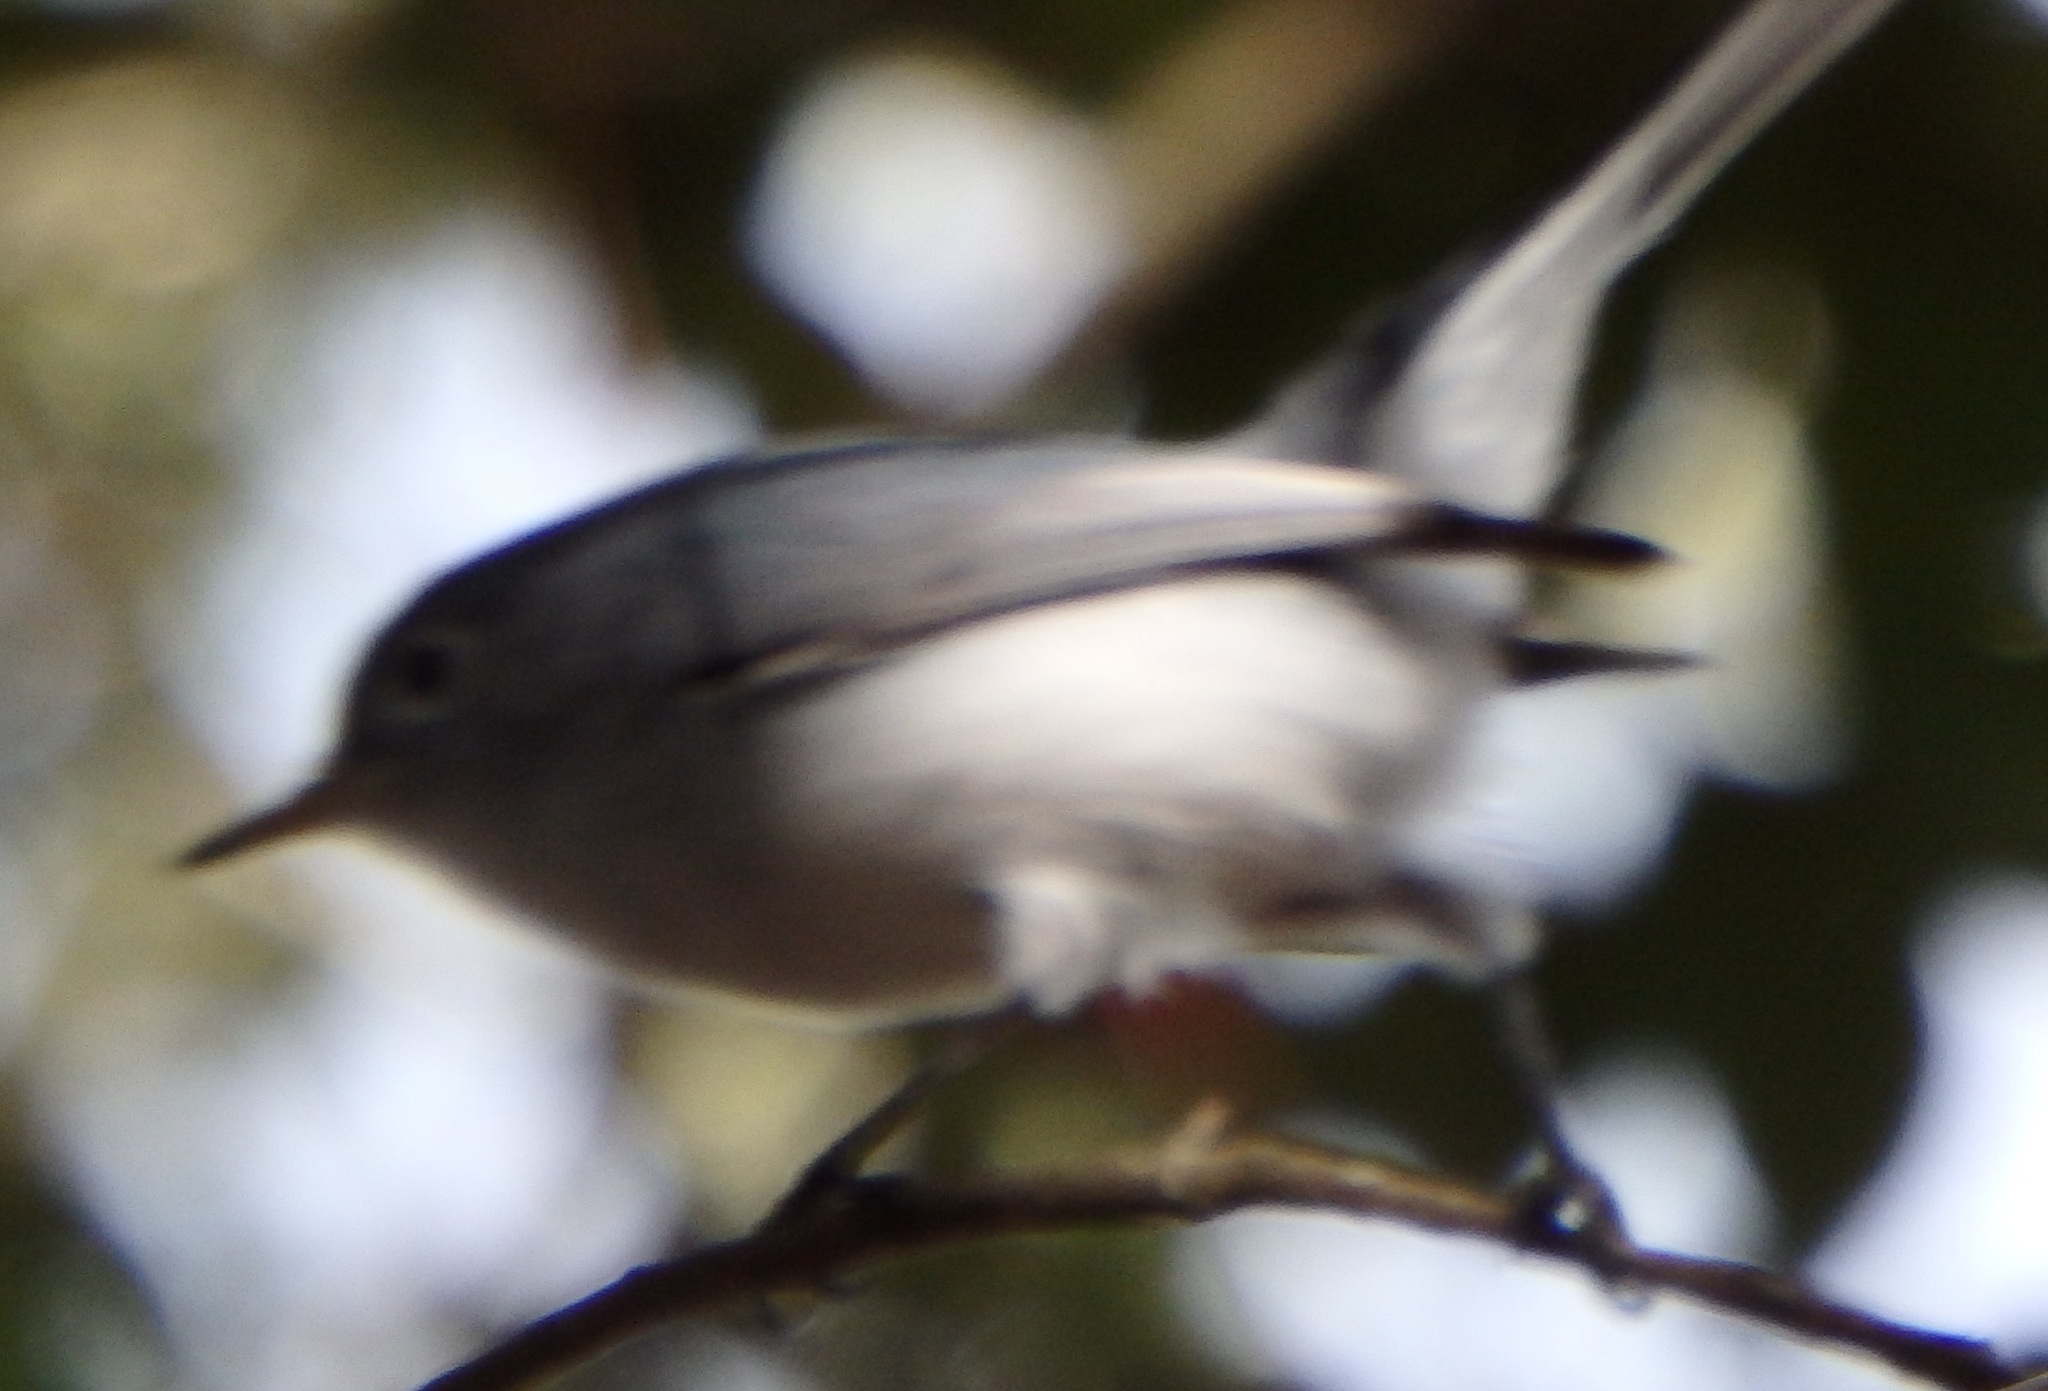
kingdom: Animalia
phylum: Chordata
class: Aves
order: Passeriformes
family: Polioptilidae
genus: Polioptila
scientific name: Polioptila caerulea
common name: Blue-gray gnatcatcher
